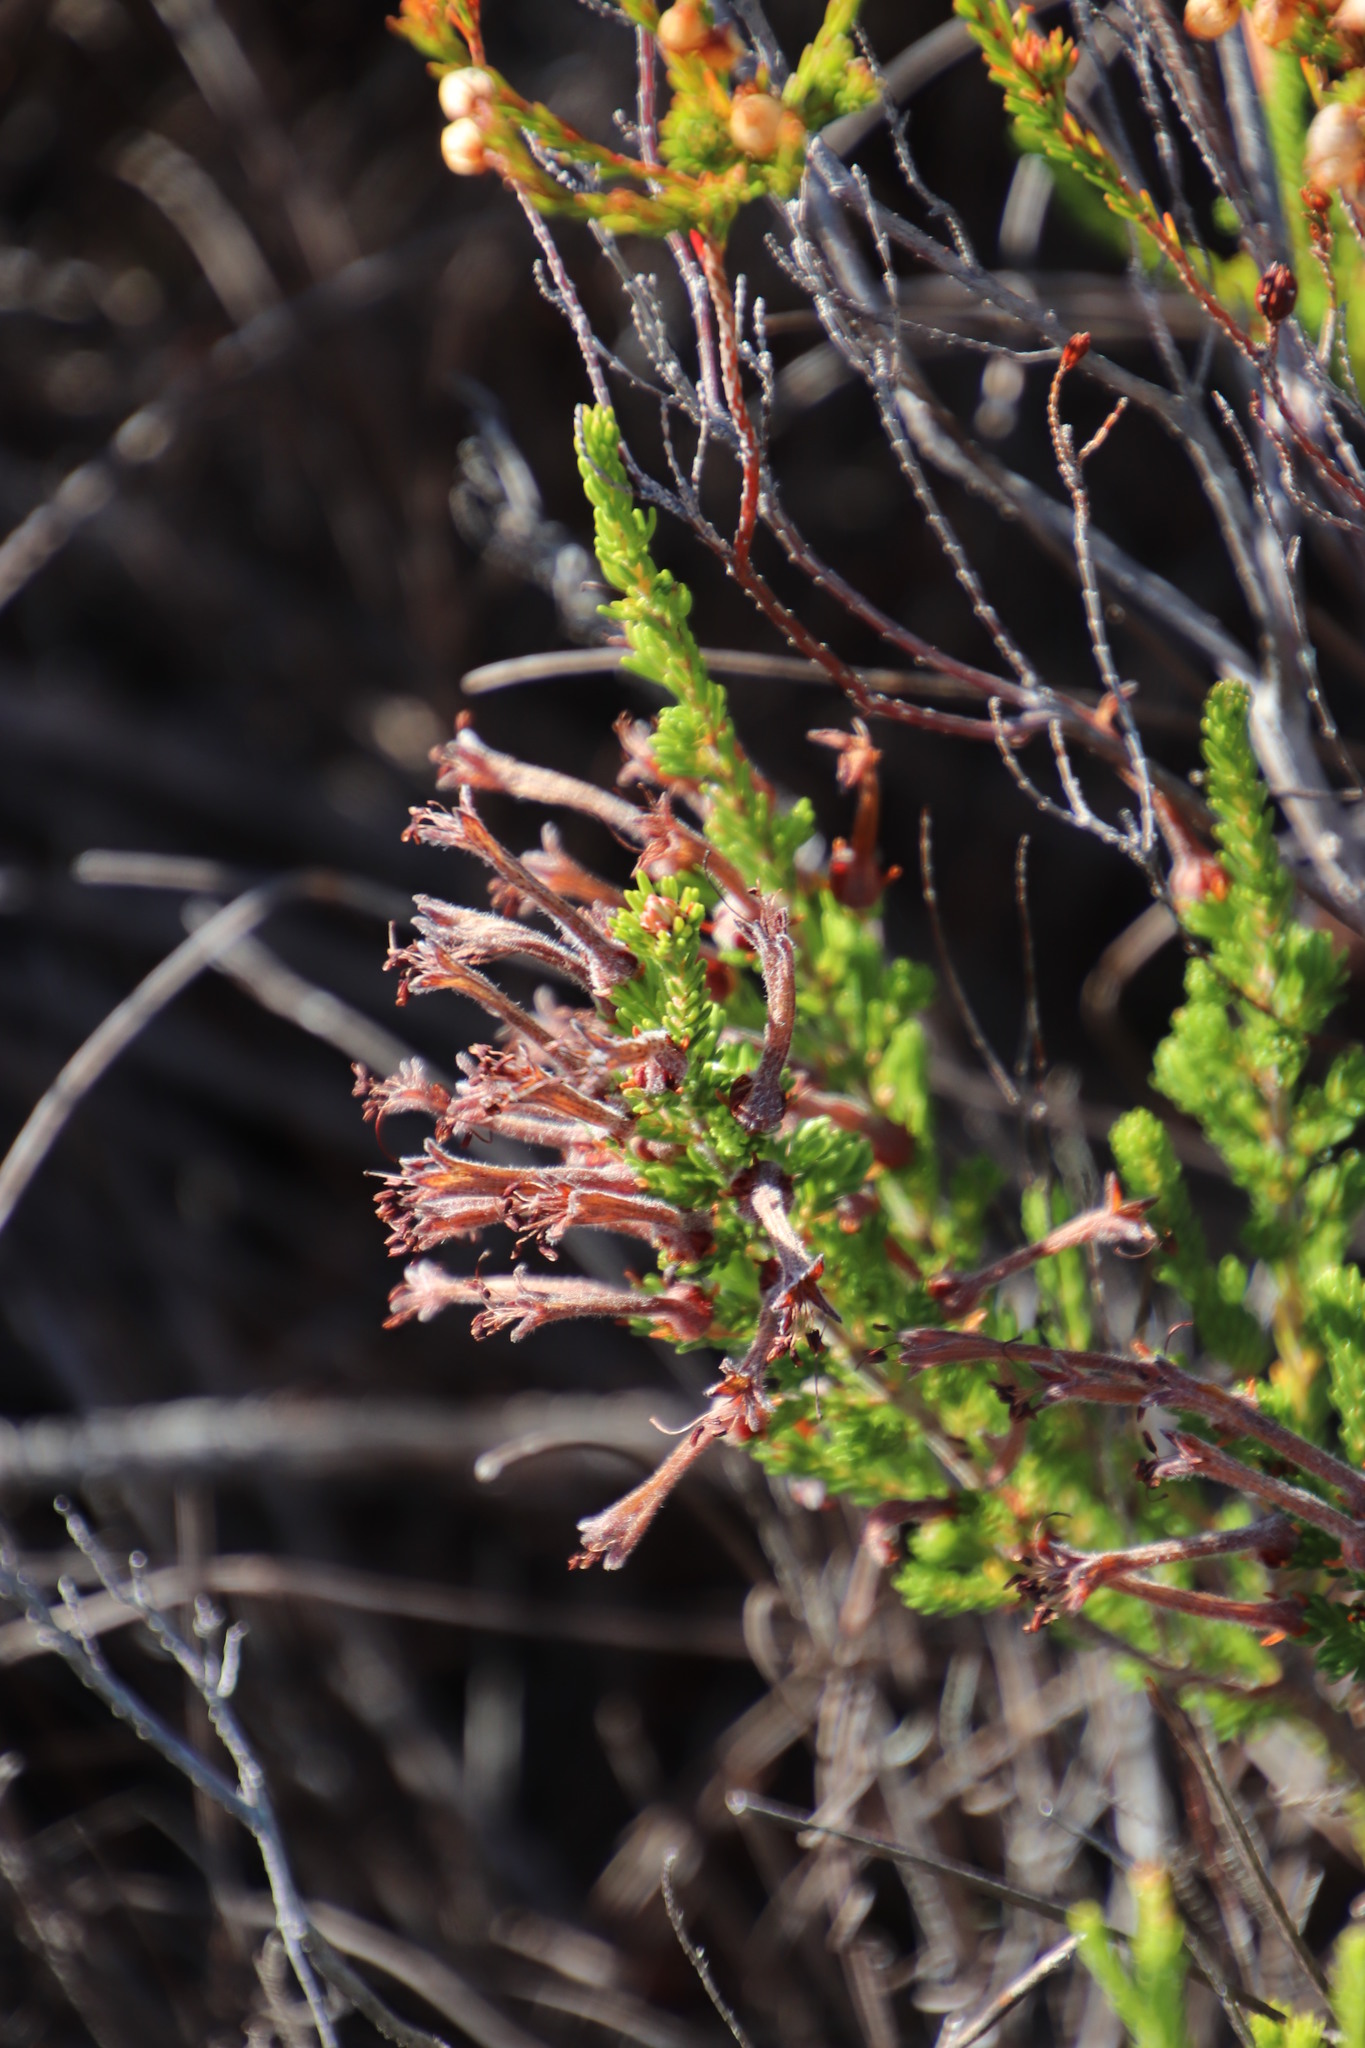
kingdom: Plantae
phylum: Tracheophyta
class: Magnoliopsida
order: Ericales
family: Ericaceae
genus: Erica
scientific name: Erica curviflora
